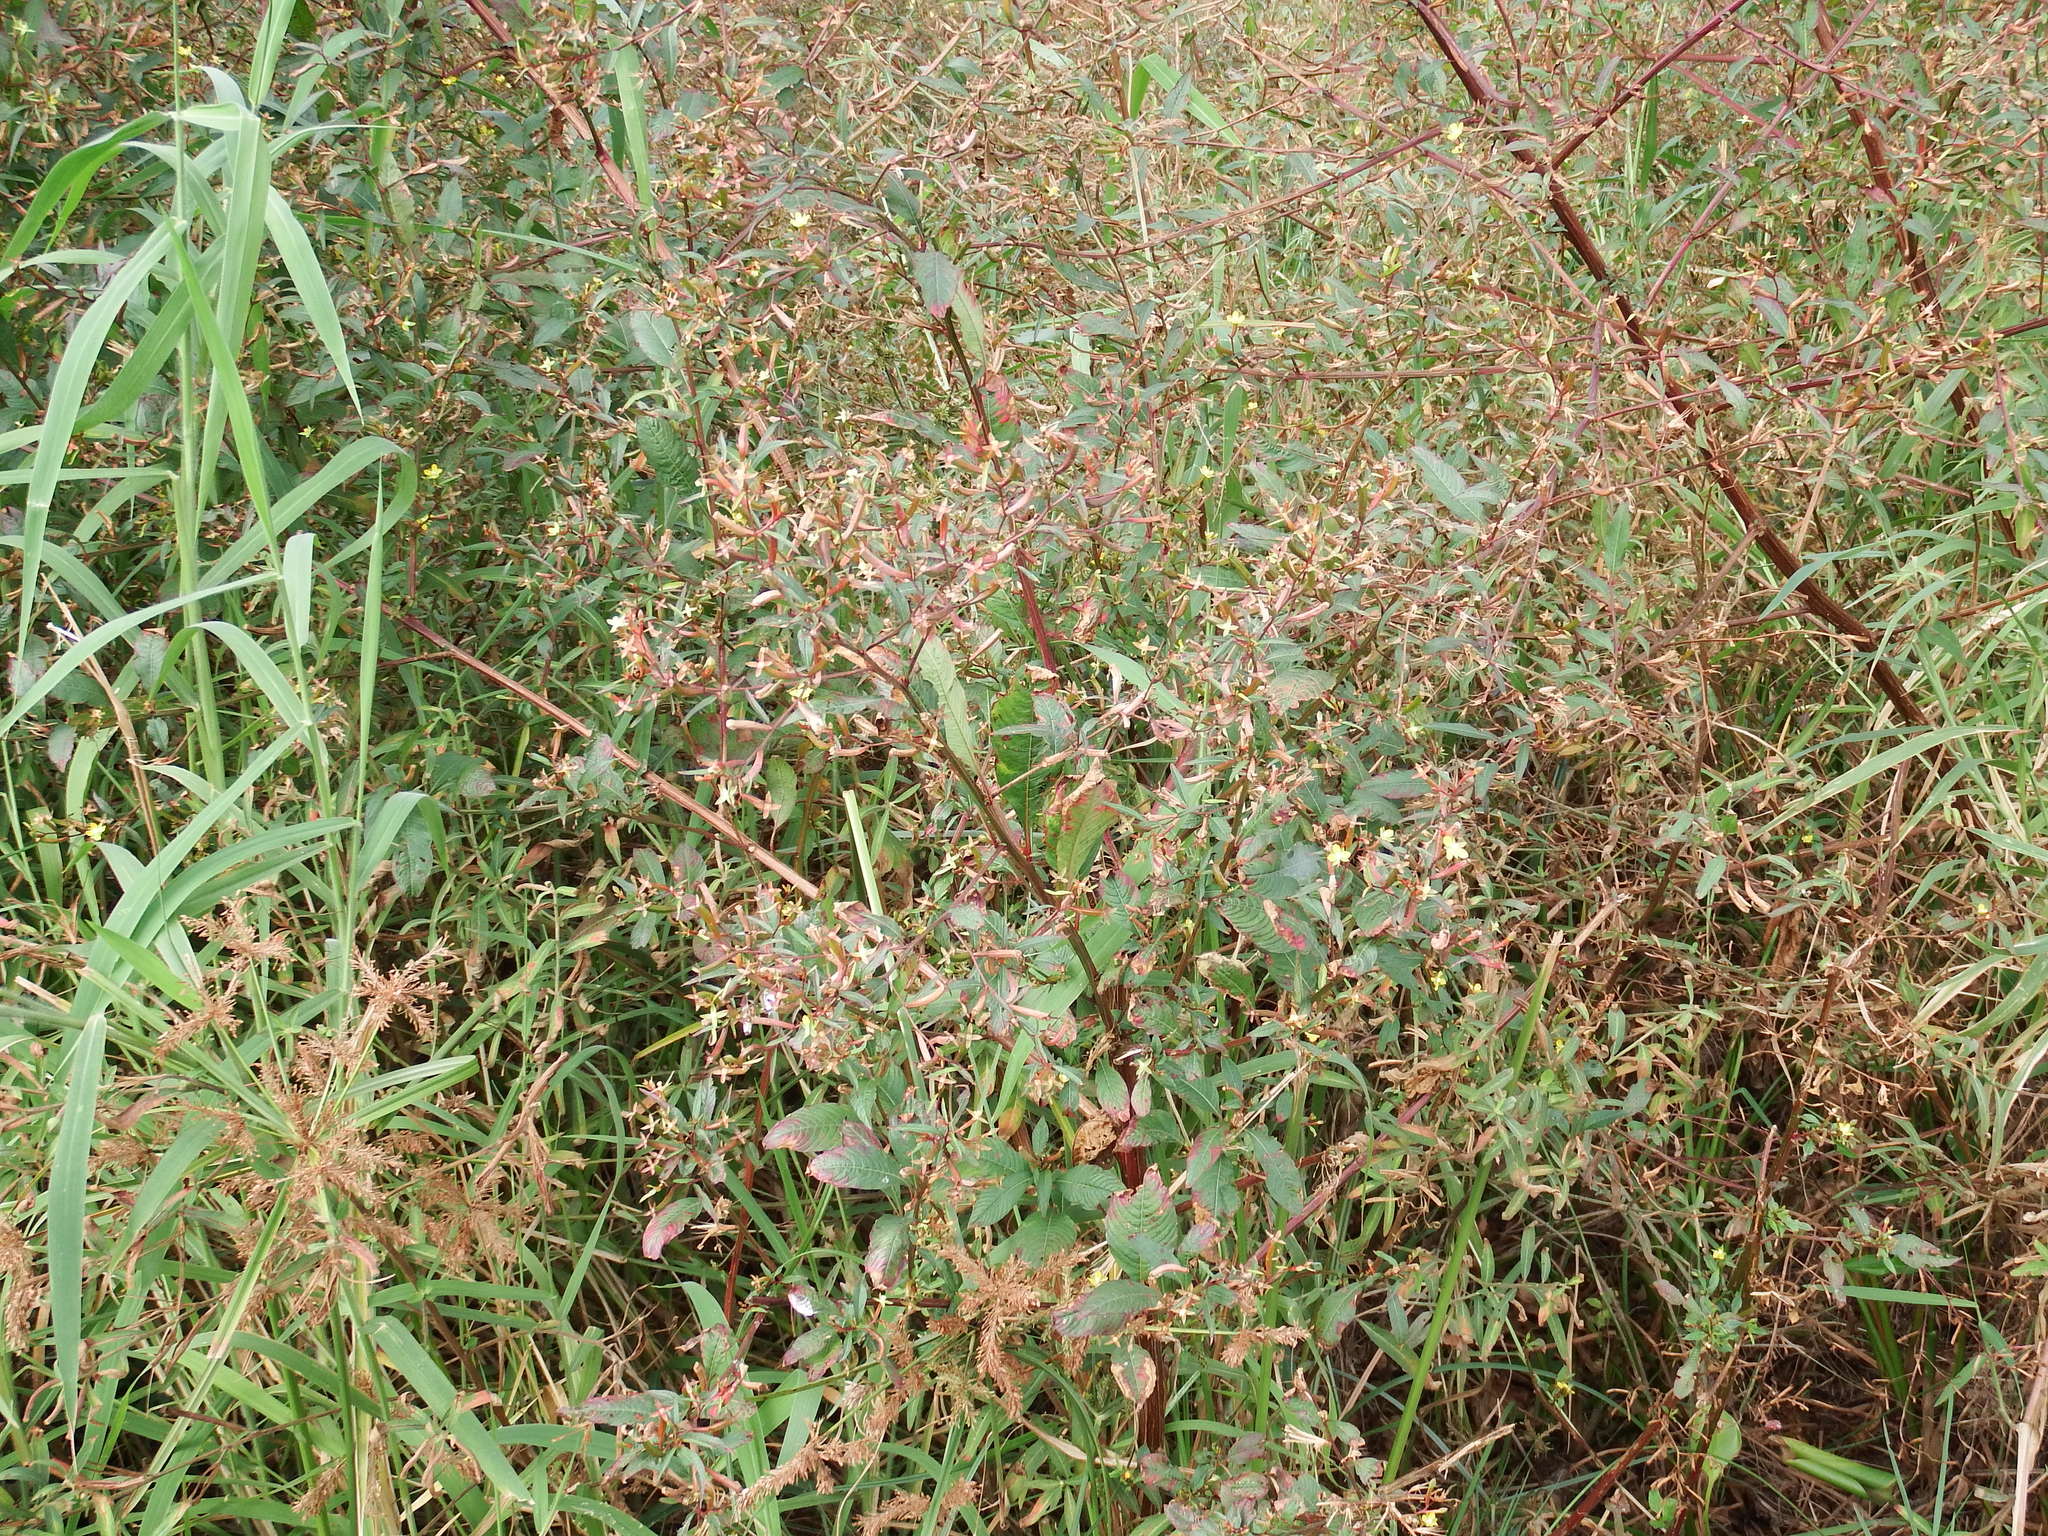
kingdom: Plantae
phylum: Tracheophyta
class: Magnoliopsida
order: Myrtales
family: Onagraceae
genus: Ludwigia
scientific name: Ludwigia erecta
